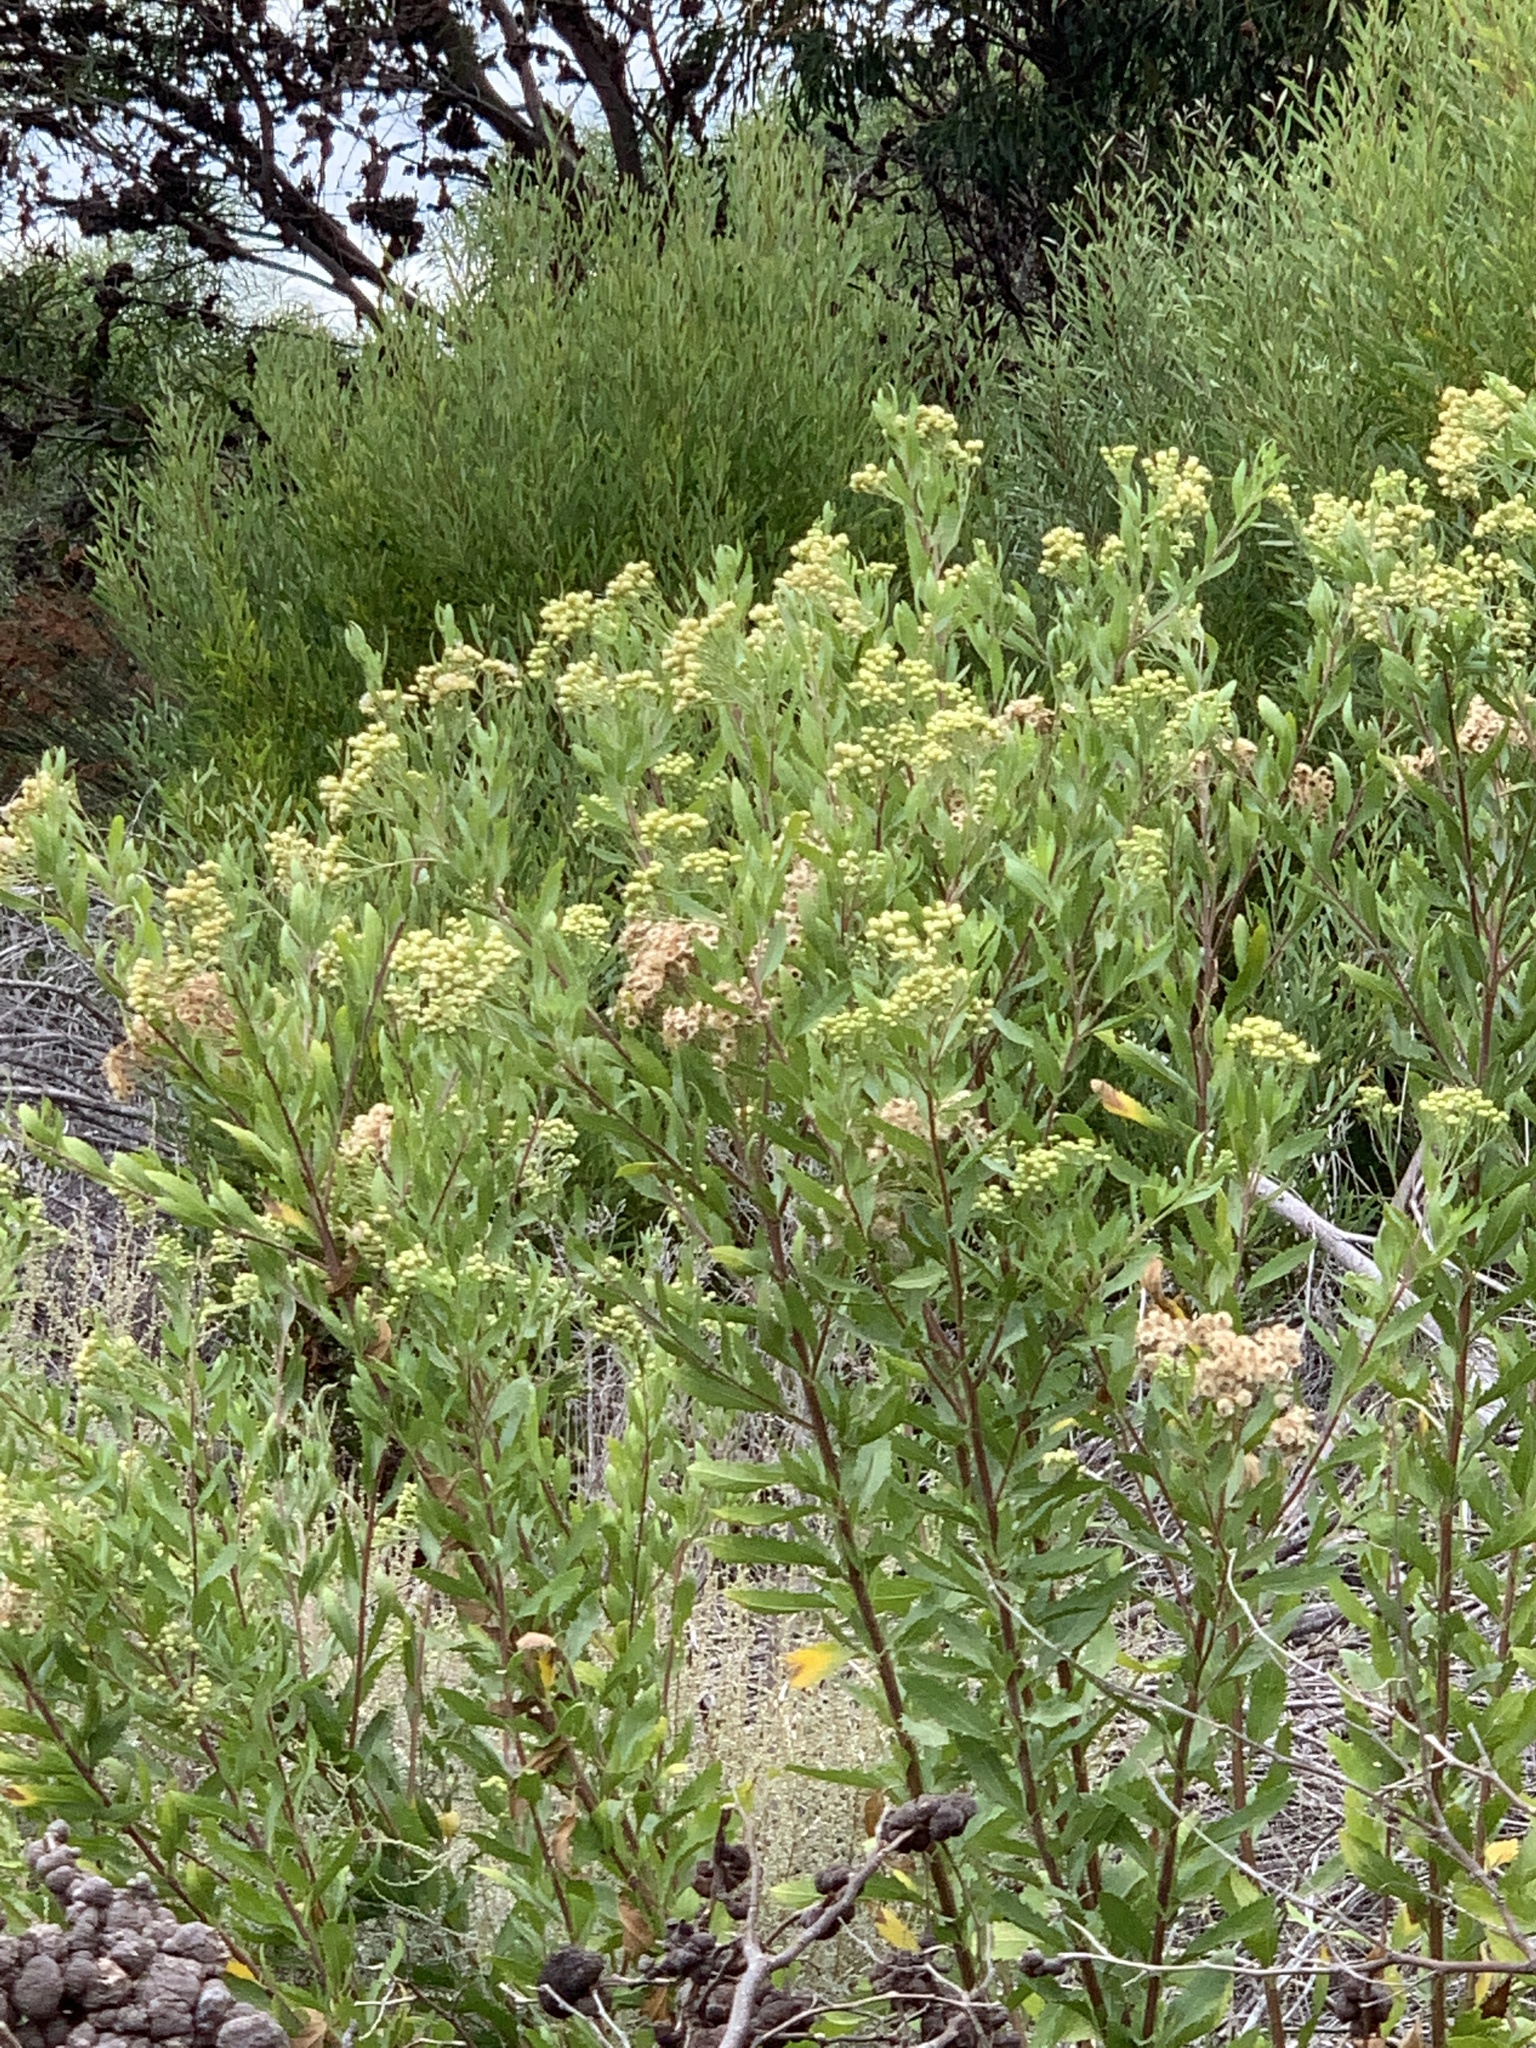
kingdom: Plantae
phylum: Tracheophyta
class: Magnoliopsida
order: Asterales
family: Asteraceae
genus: Nidorella
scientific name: Nidorella ivifolia
